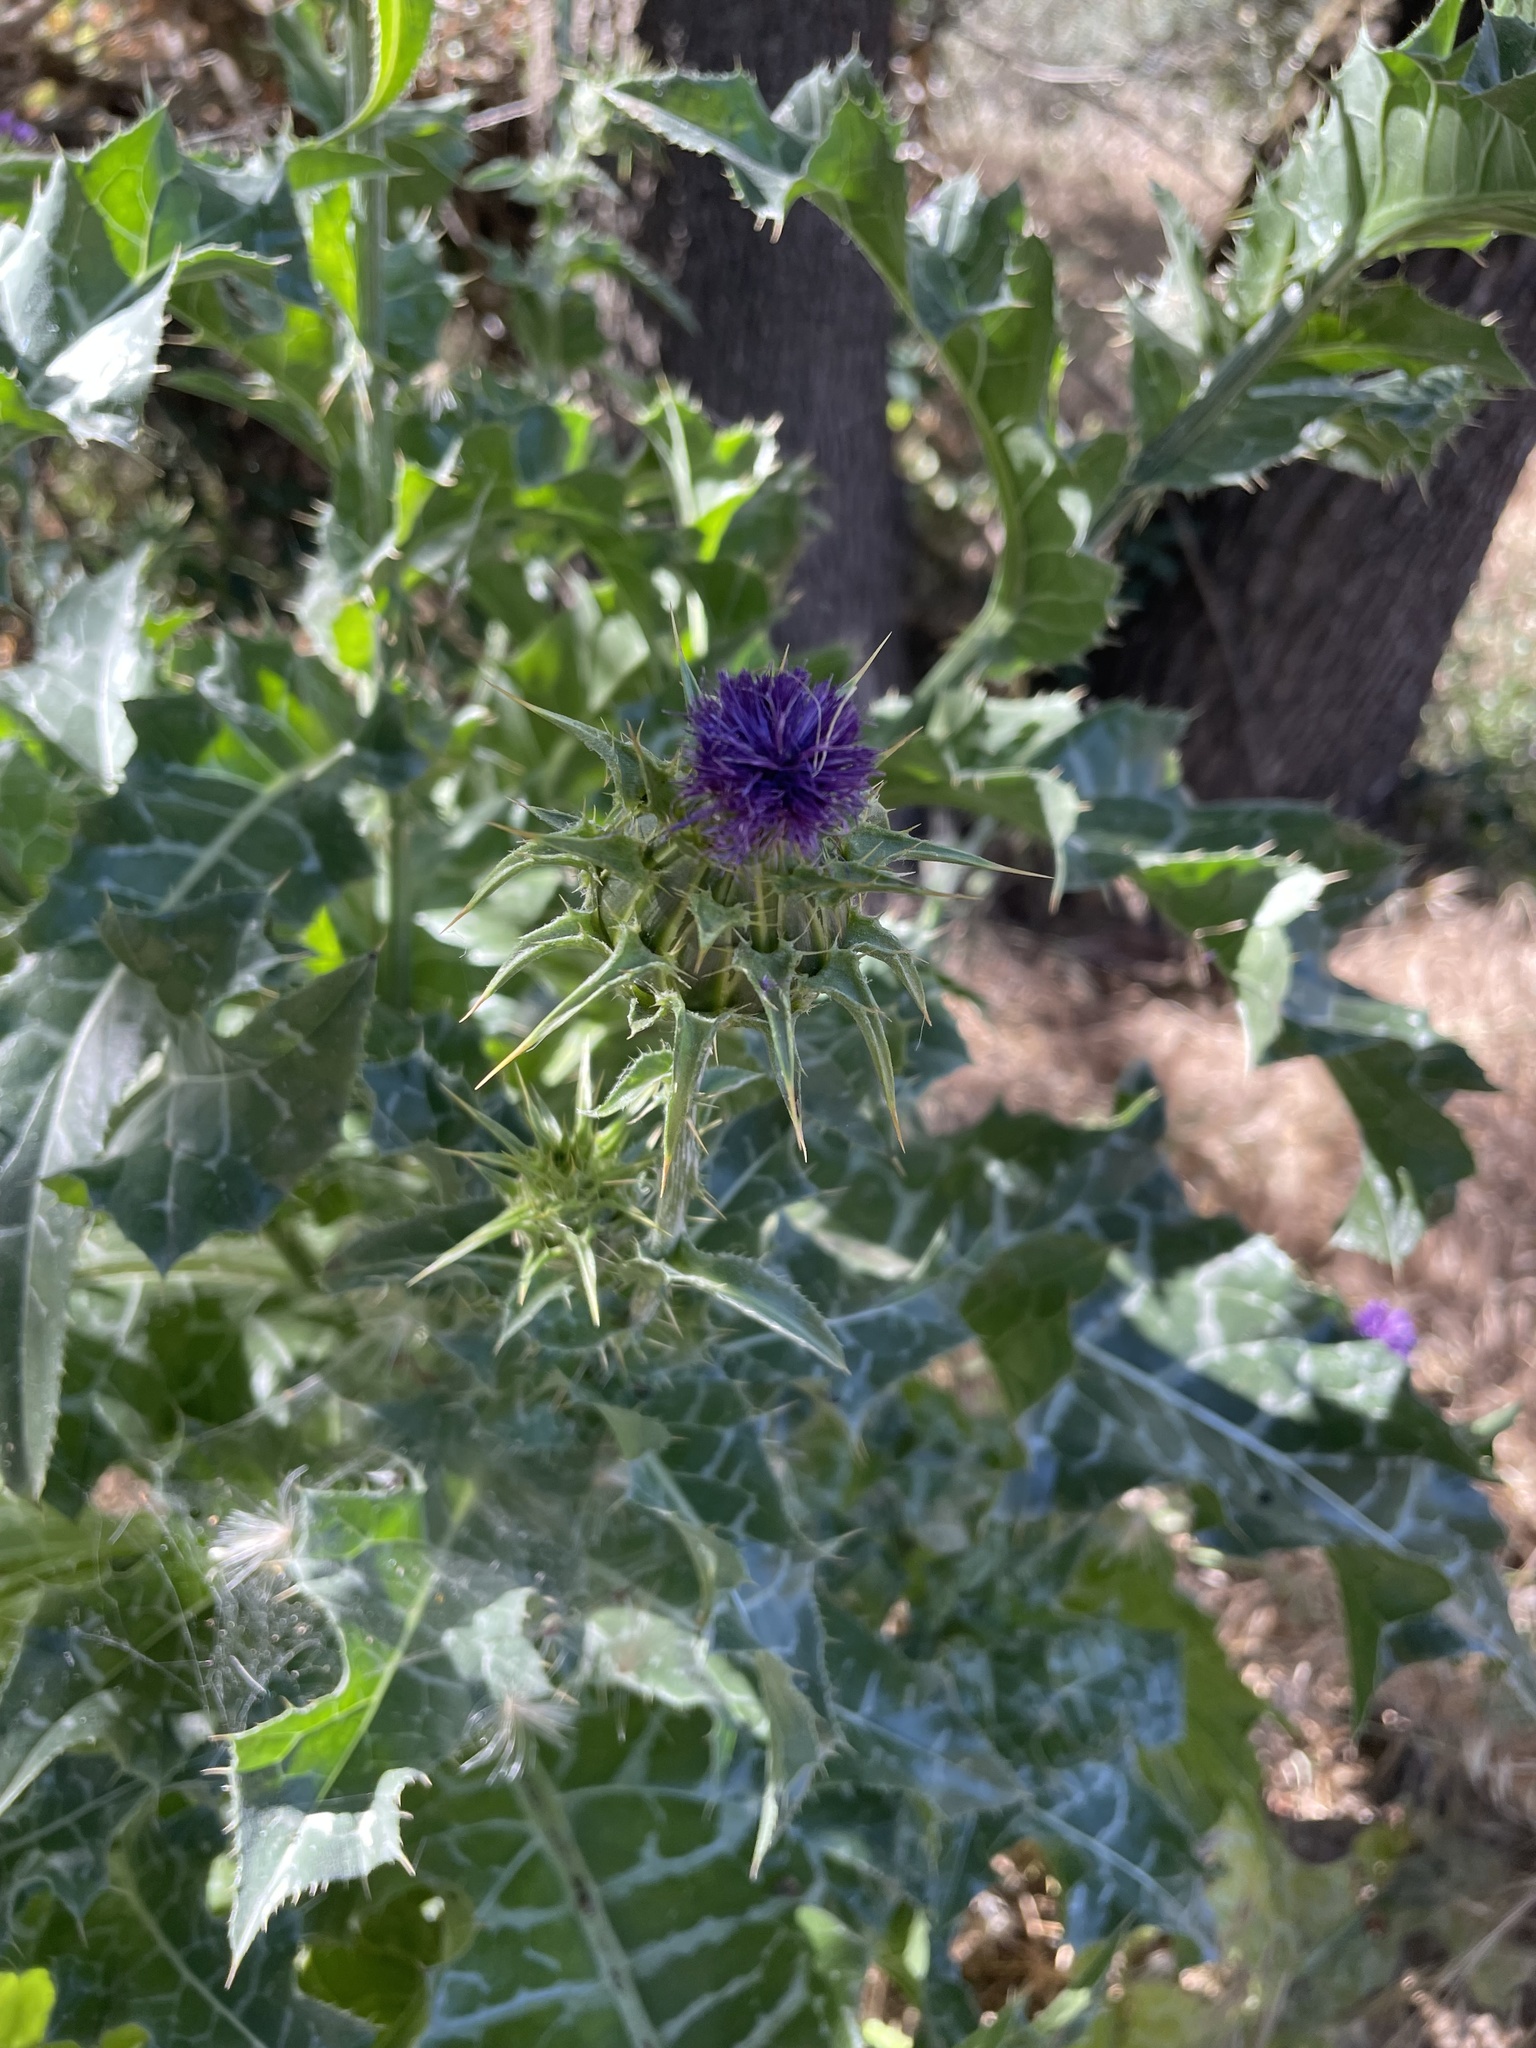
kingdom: Plantae
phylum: Tracheophyta
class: Magnoliopsida
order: Asterales
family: Asteraceae
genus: Silybum
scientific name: Silybum marianum
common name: Milk thistle
